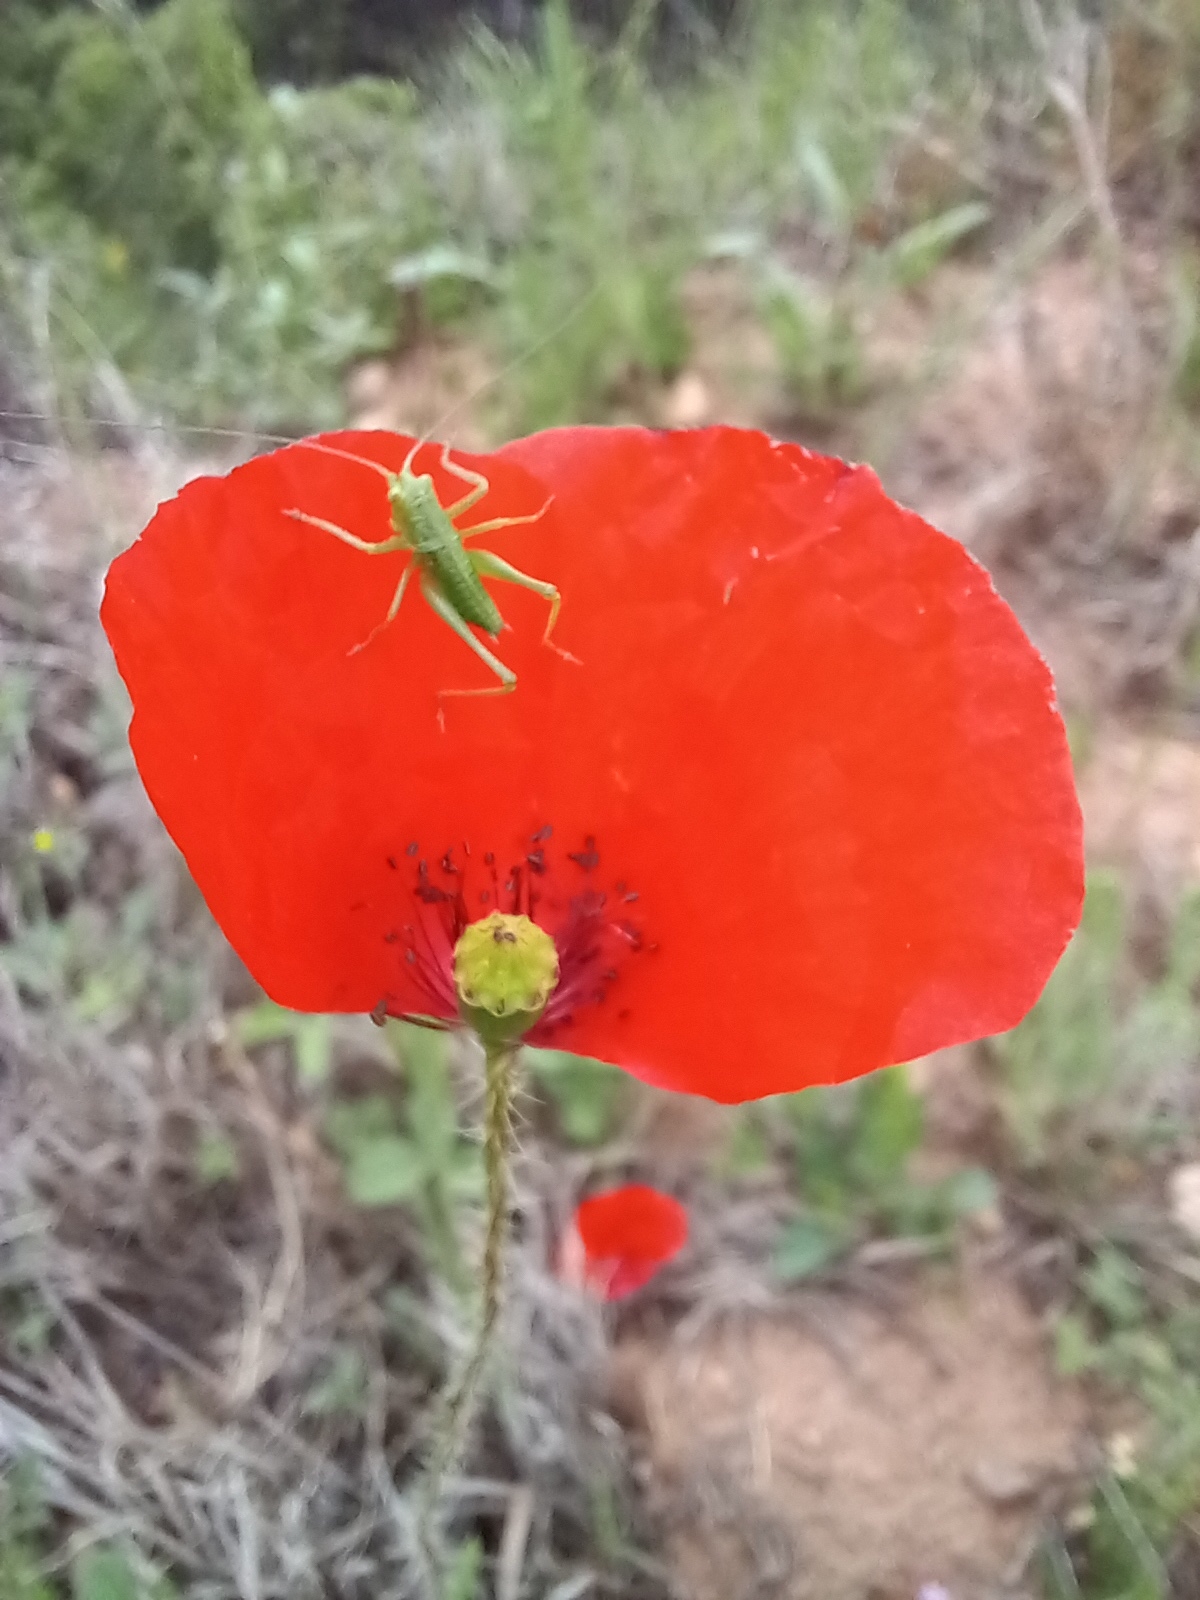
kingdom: Animalia
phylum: Arthropoda
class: Insecta
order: Orthoptera
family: Tettigoniidae
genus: Tettigonia
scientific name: Tettigonia viridissima
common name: Great green bush-cricket
